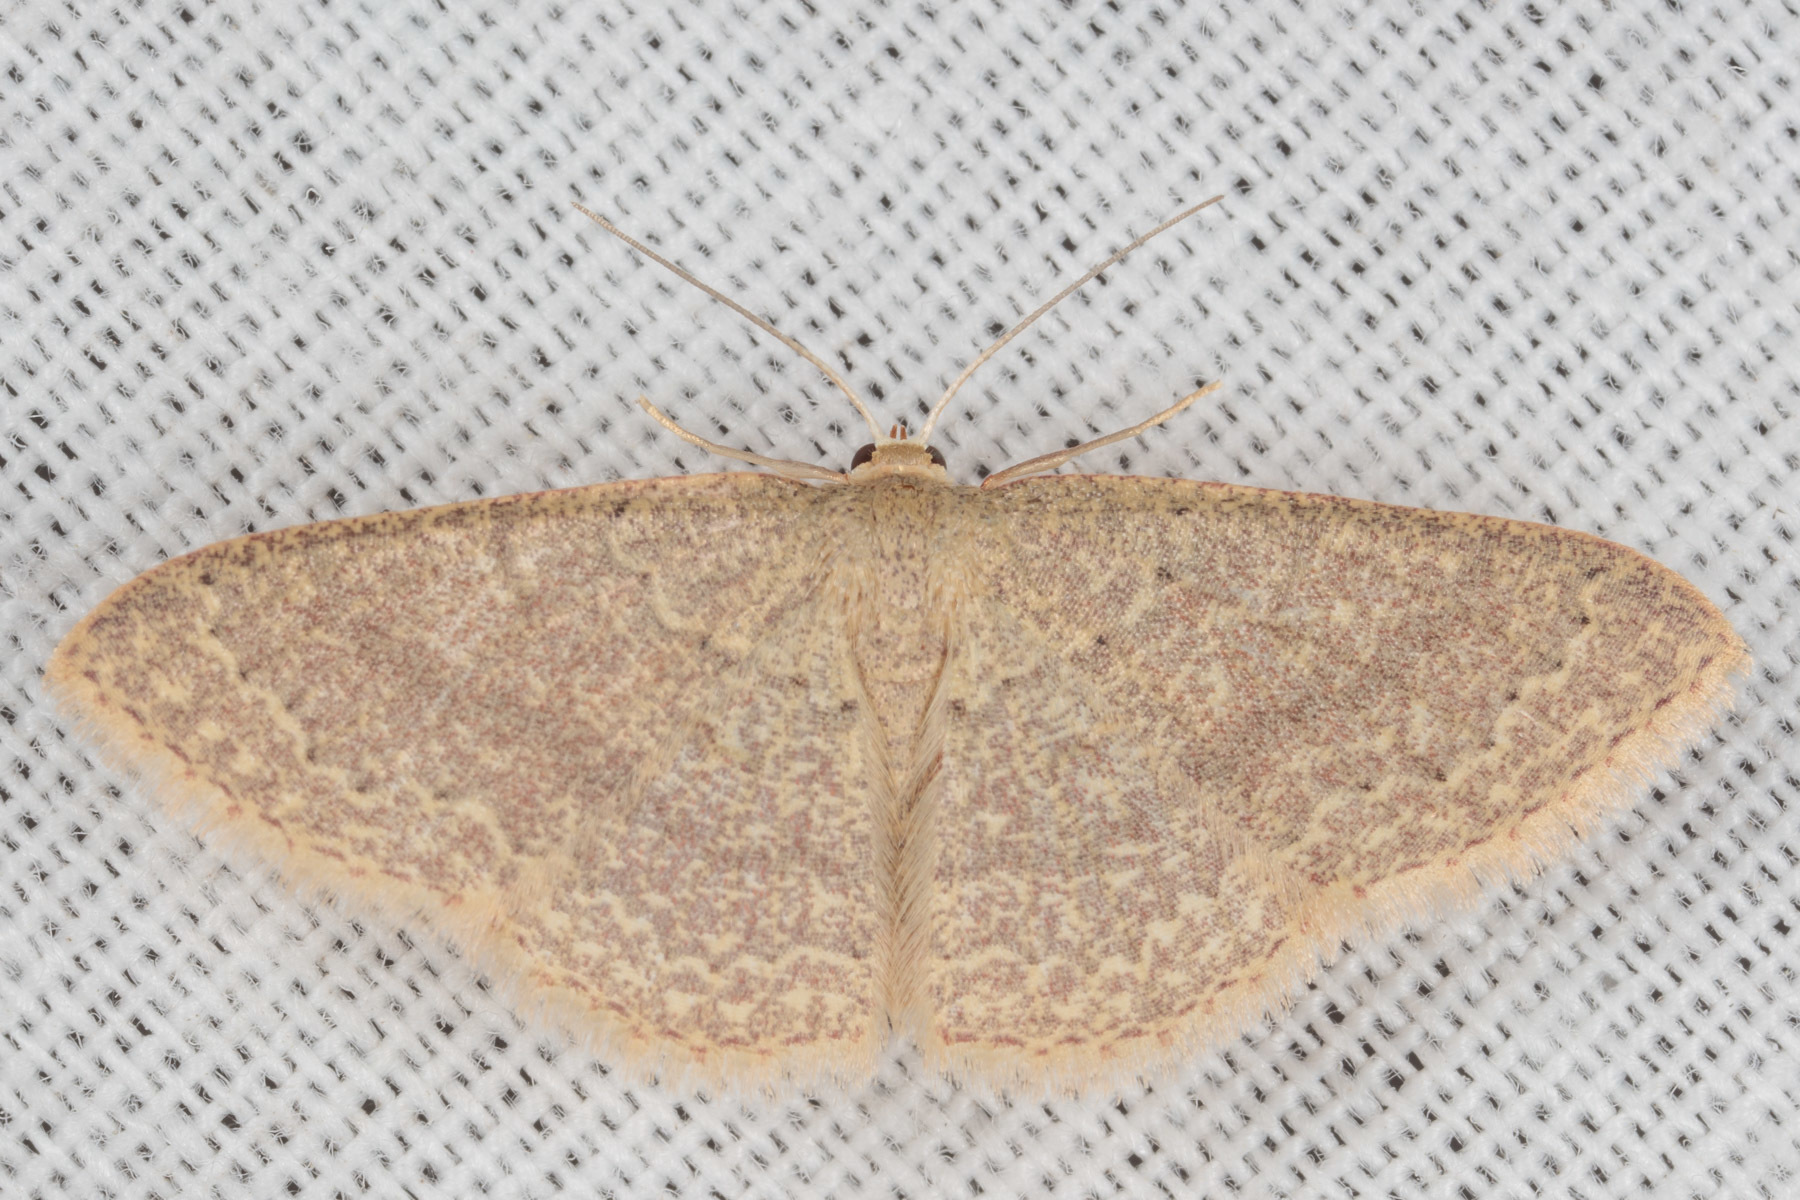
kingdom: Animalia
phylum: Arthropoda
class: Insecta
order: Lepidoptera
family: Geometridae
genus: Pleuroprucha
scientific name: Pleuroprucha insulsaria
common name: Common tan wave
